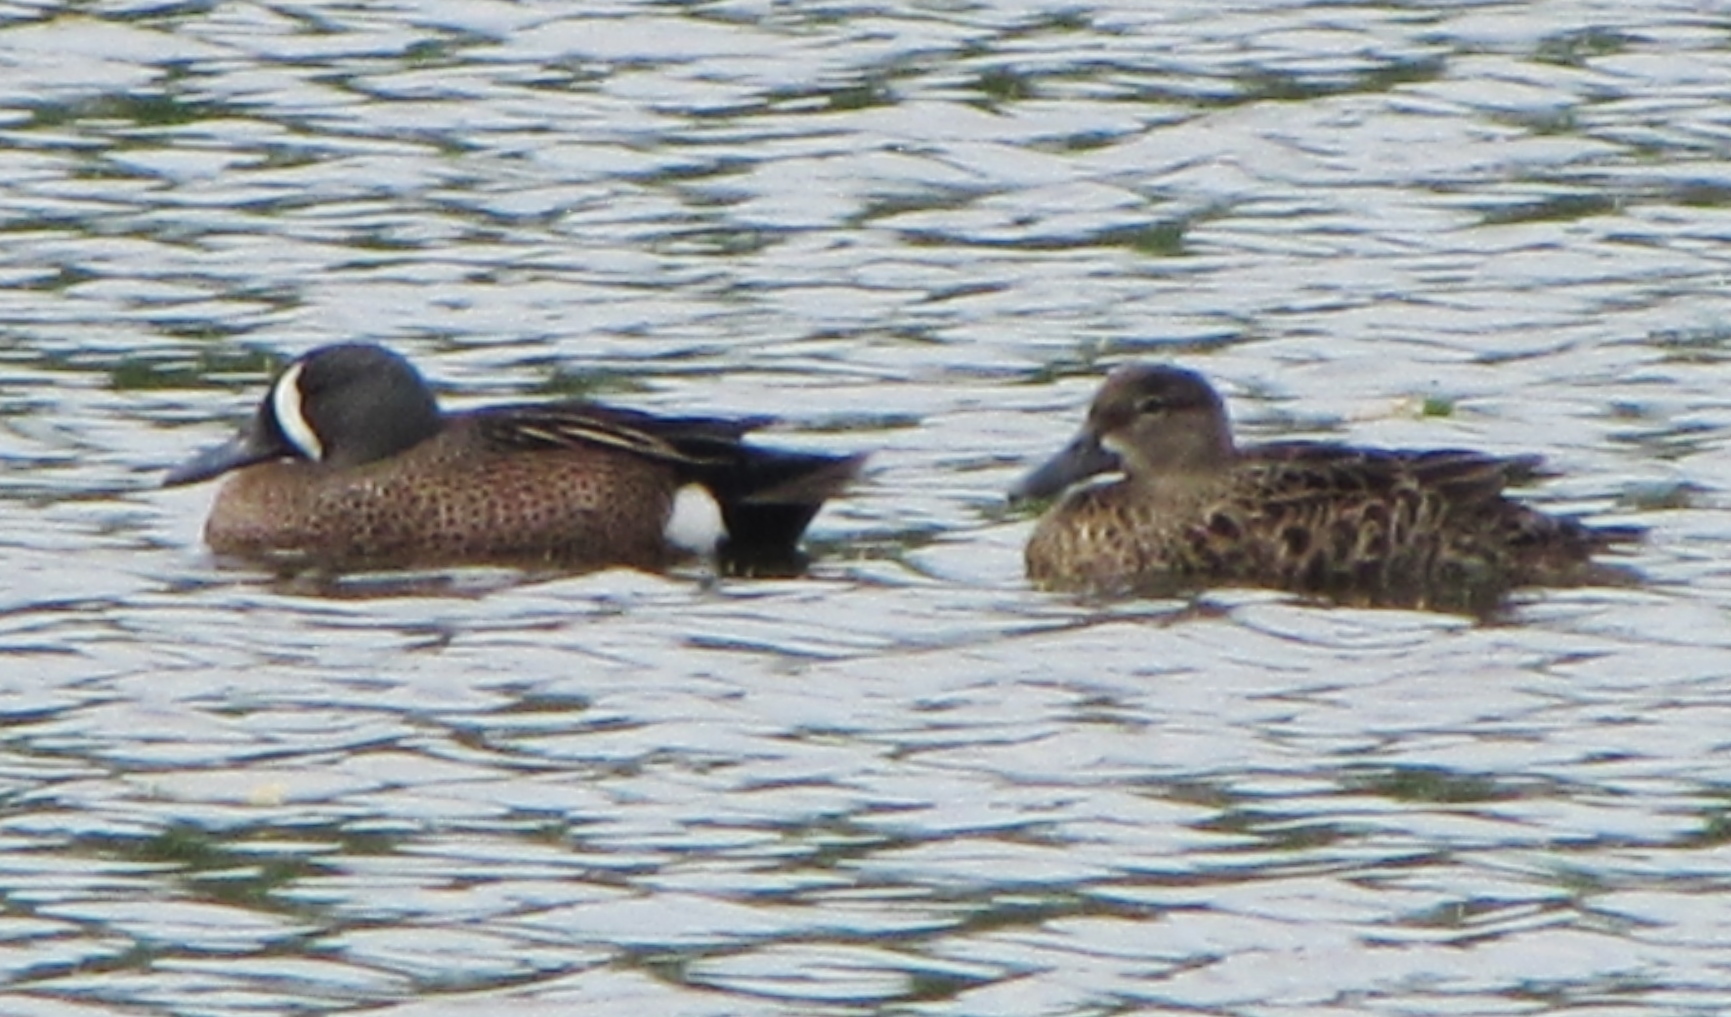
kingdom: Animalia
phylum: Chordata
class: Aves
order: Anseriformes
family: Anatidae
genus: Spatula
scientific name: Spatula discors
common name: Blue-winged teal
